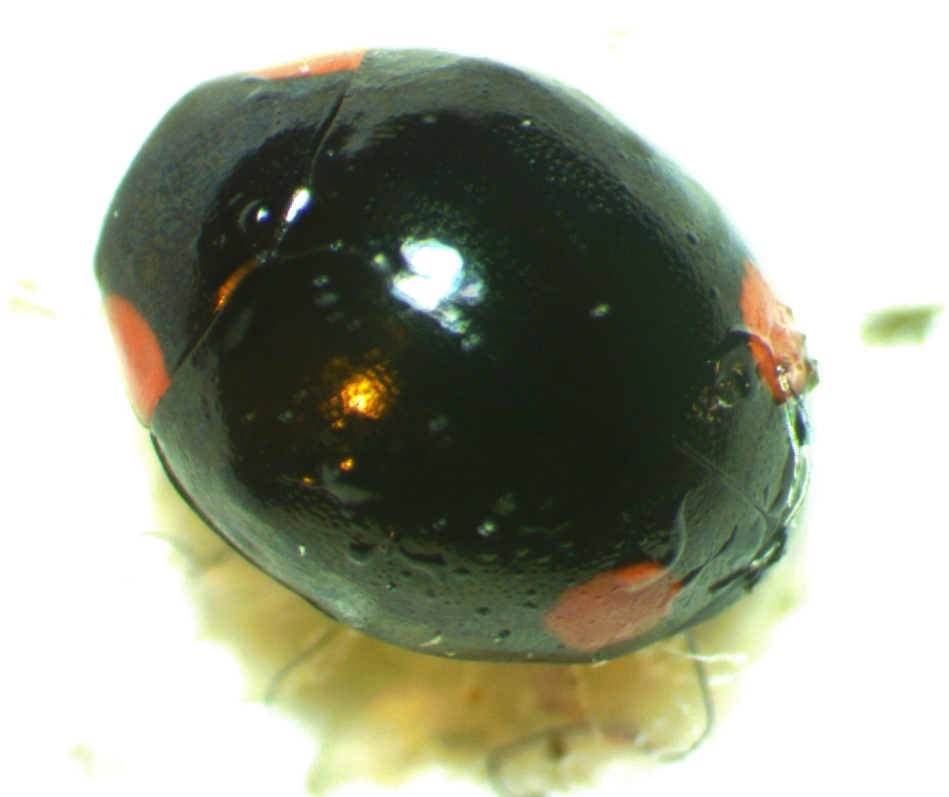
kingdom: Animalia
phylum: Arthropoda
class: Insecta
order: Coleoptera
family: Coccinellidae
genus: Hyperaspis
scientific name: Hyperaspis bigeminata
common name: Bigeminate sigil lady beetle
